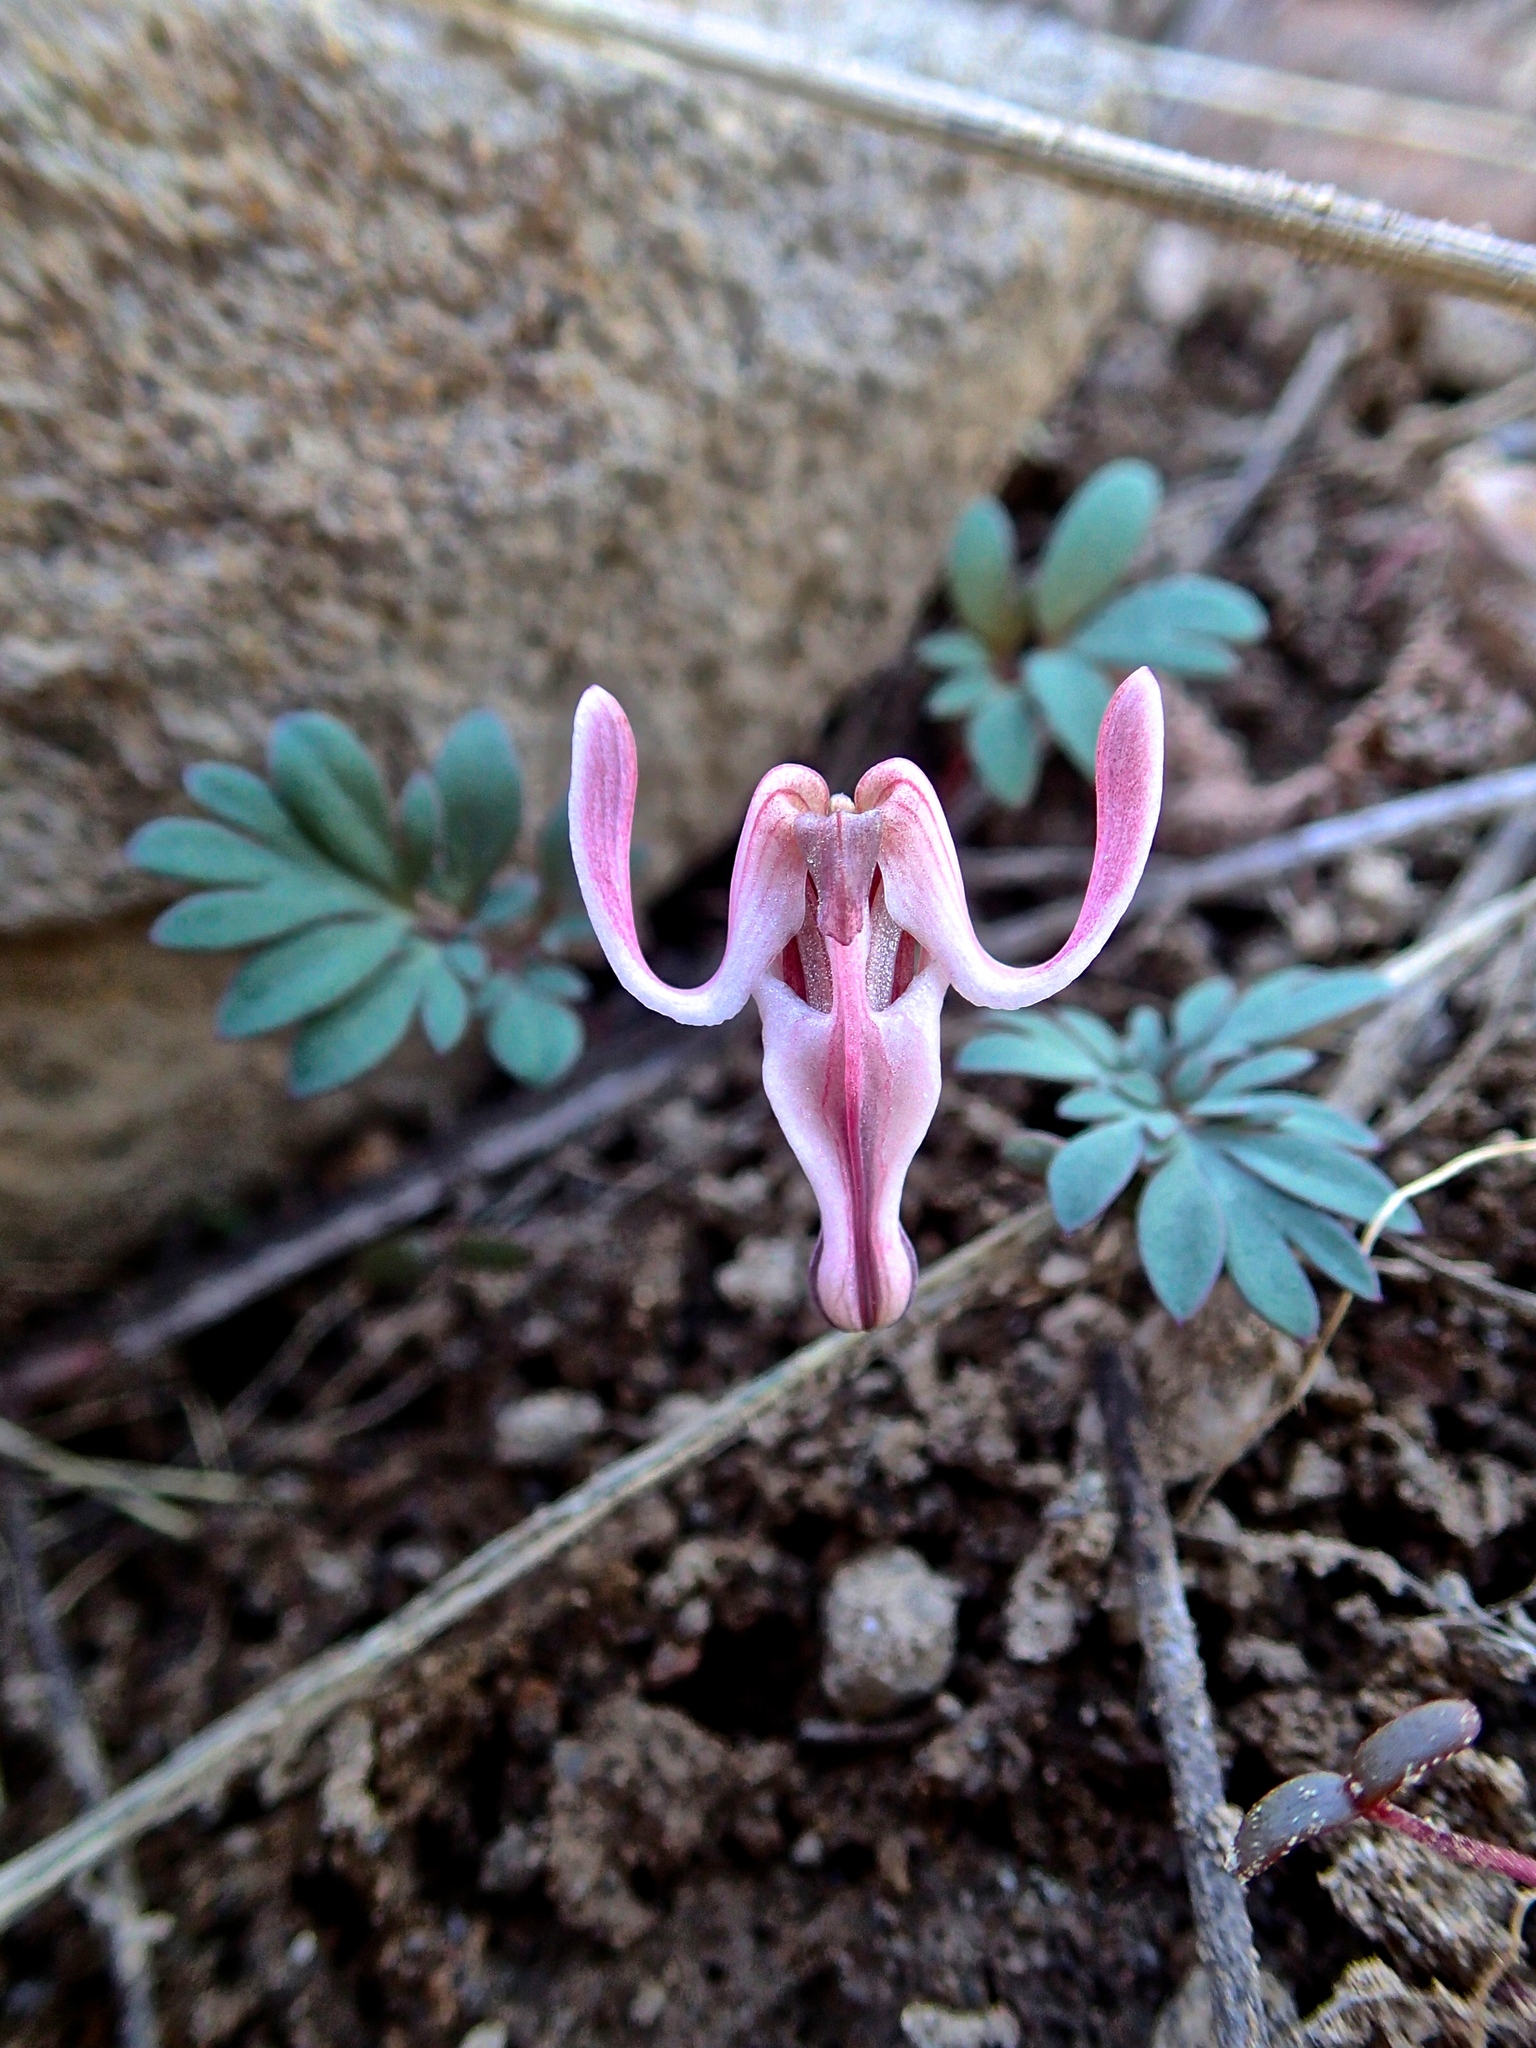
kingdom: Plantae
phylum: Tracheophyta
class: Magnoliopsida
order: Ranunculales
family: Papaveraceae
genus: Dicentra
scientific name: Dicentra uniflora
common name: Steer's-head
